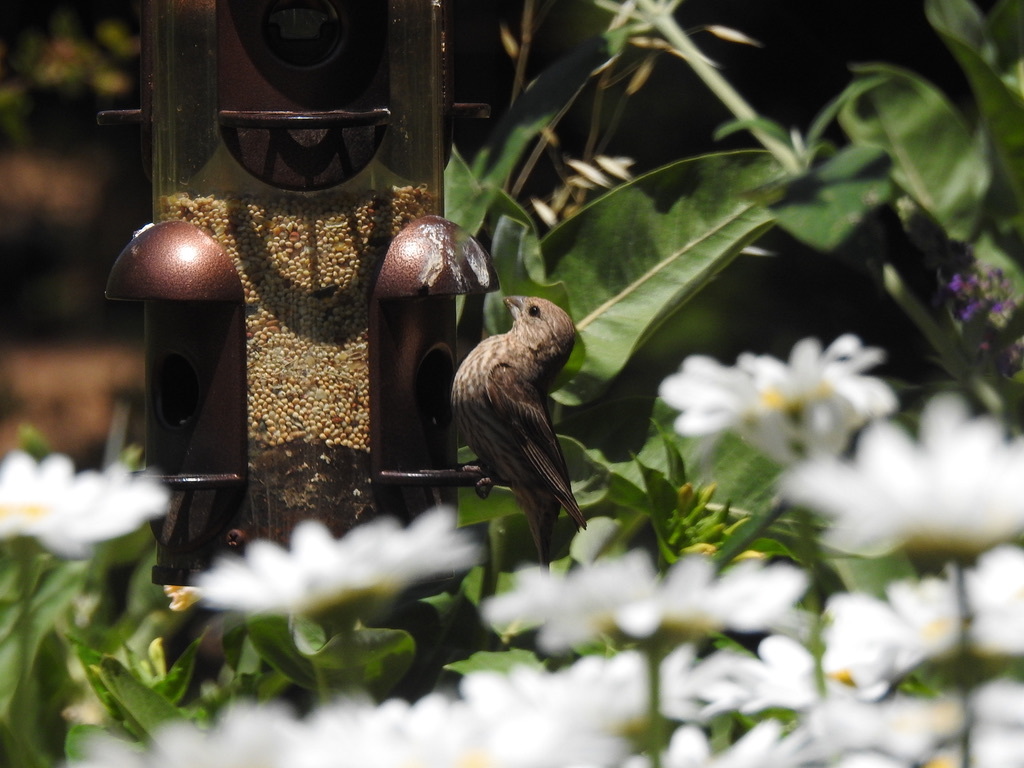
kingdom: Animalia
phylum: Chordata
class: Aves
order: Passeriformes
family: Fringillidae
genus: Haemorhous
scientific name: Haemorhous mexicanus
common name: House finch
